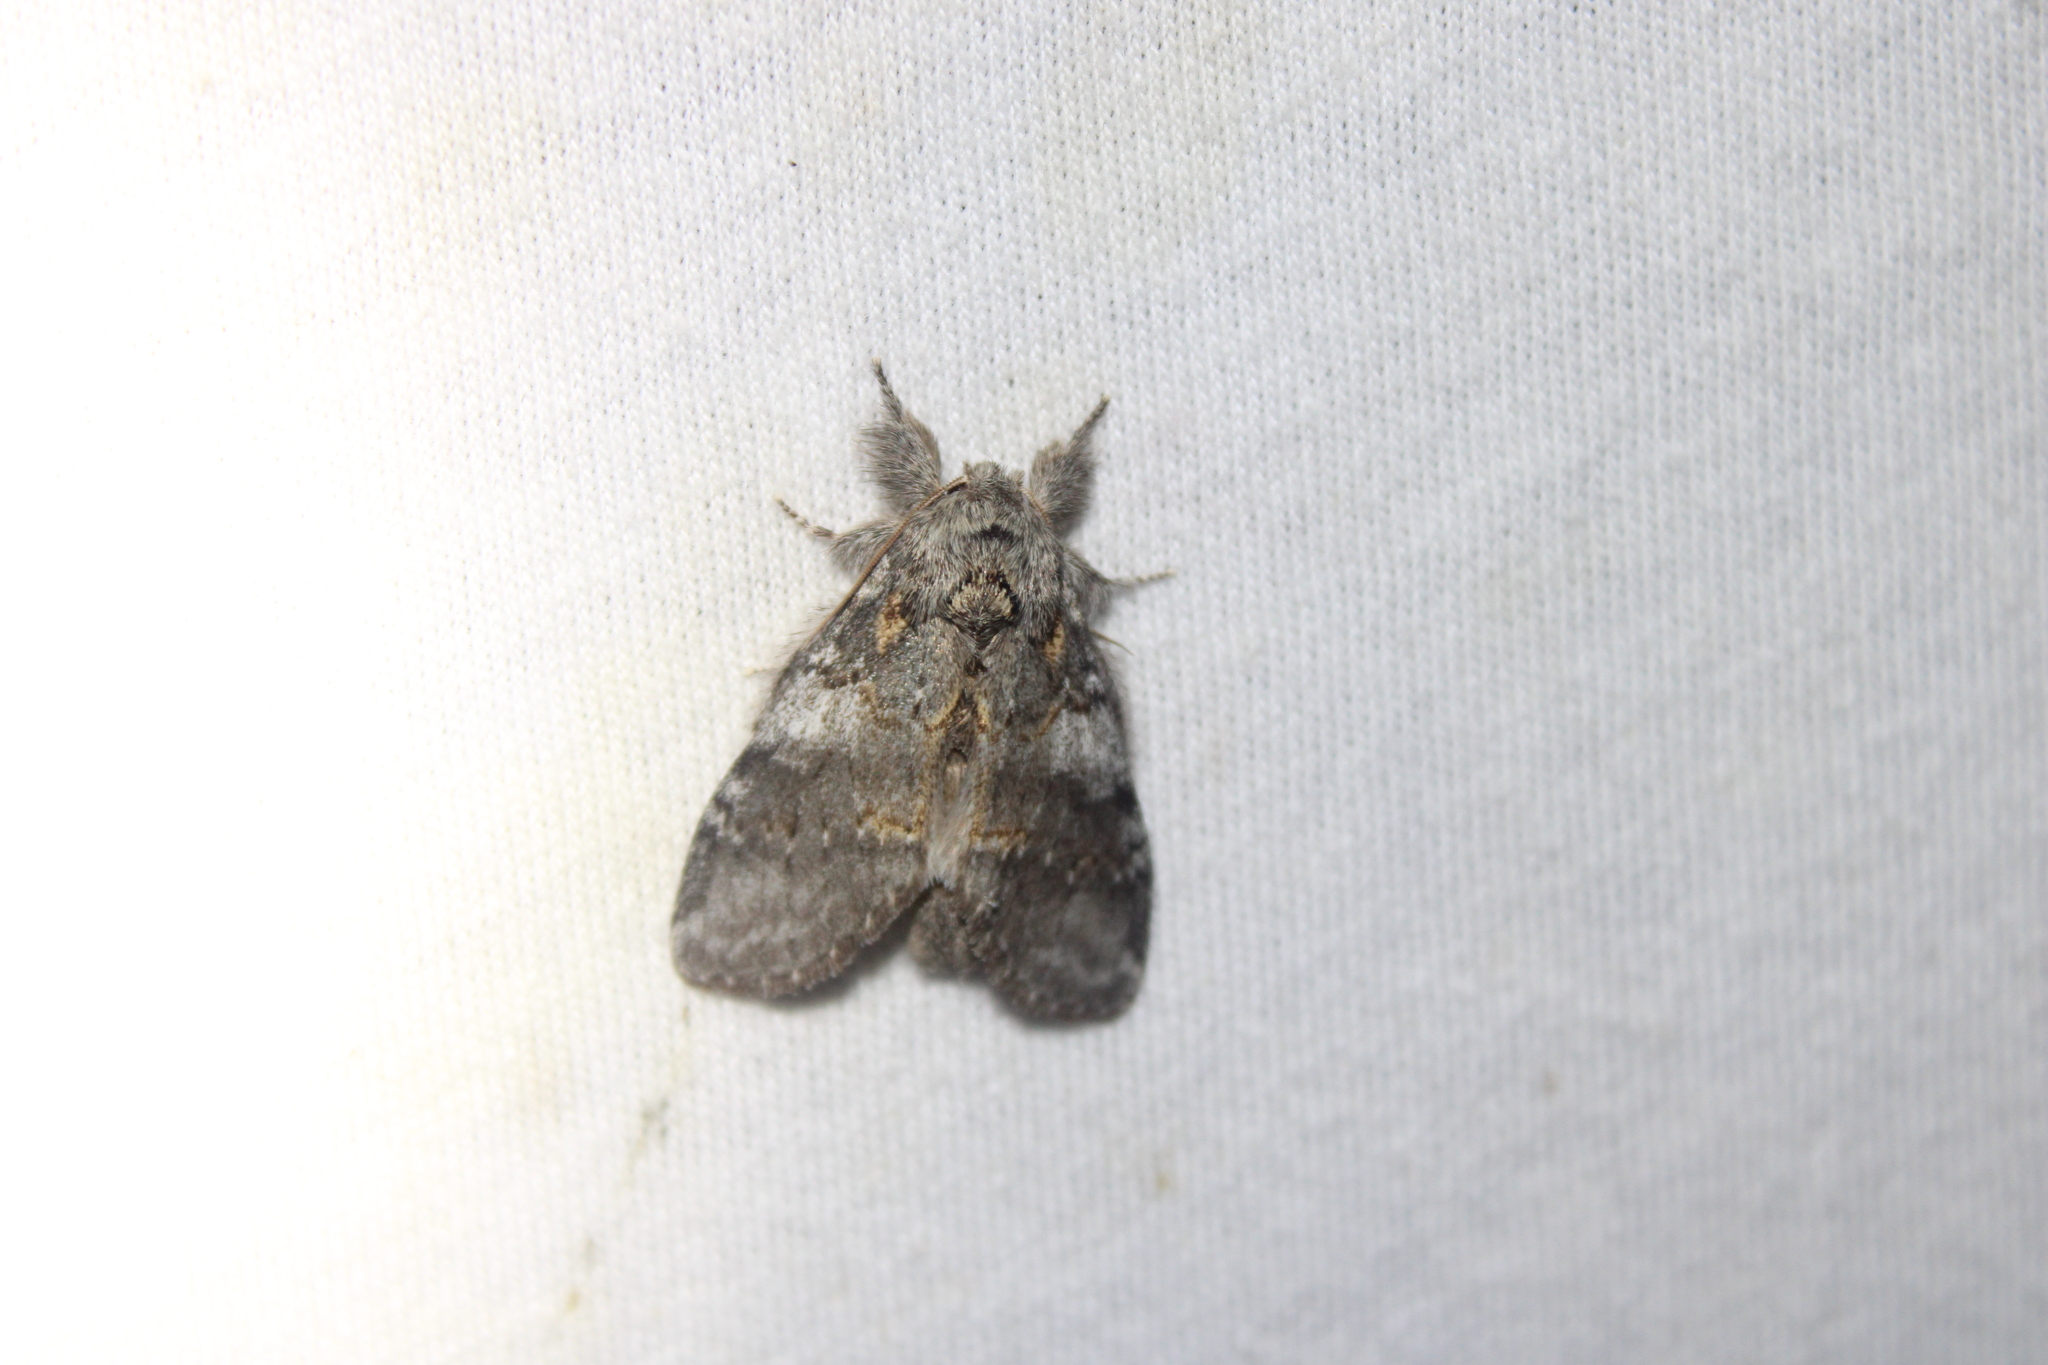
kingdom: Animalia
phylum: Arthropoda
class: Insecta
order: Lepidoptera
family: Notodontidae
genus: Peridea
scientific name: Peridea angulosa
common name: Angulose prominent
